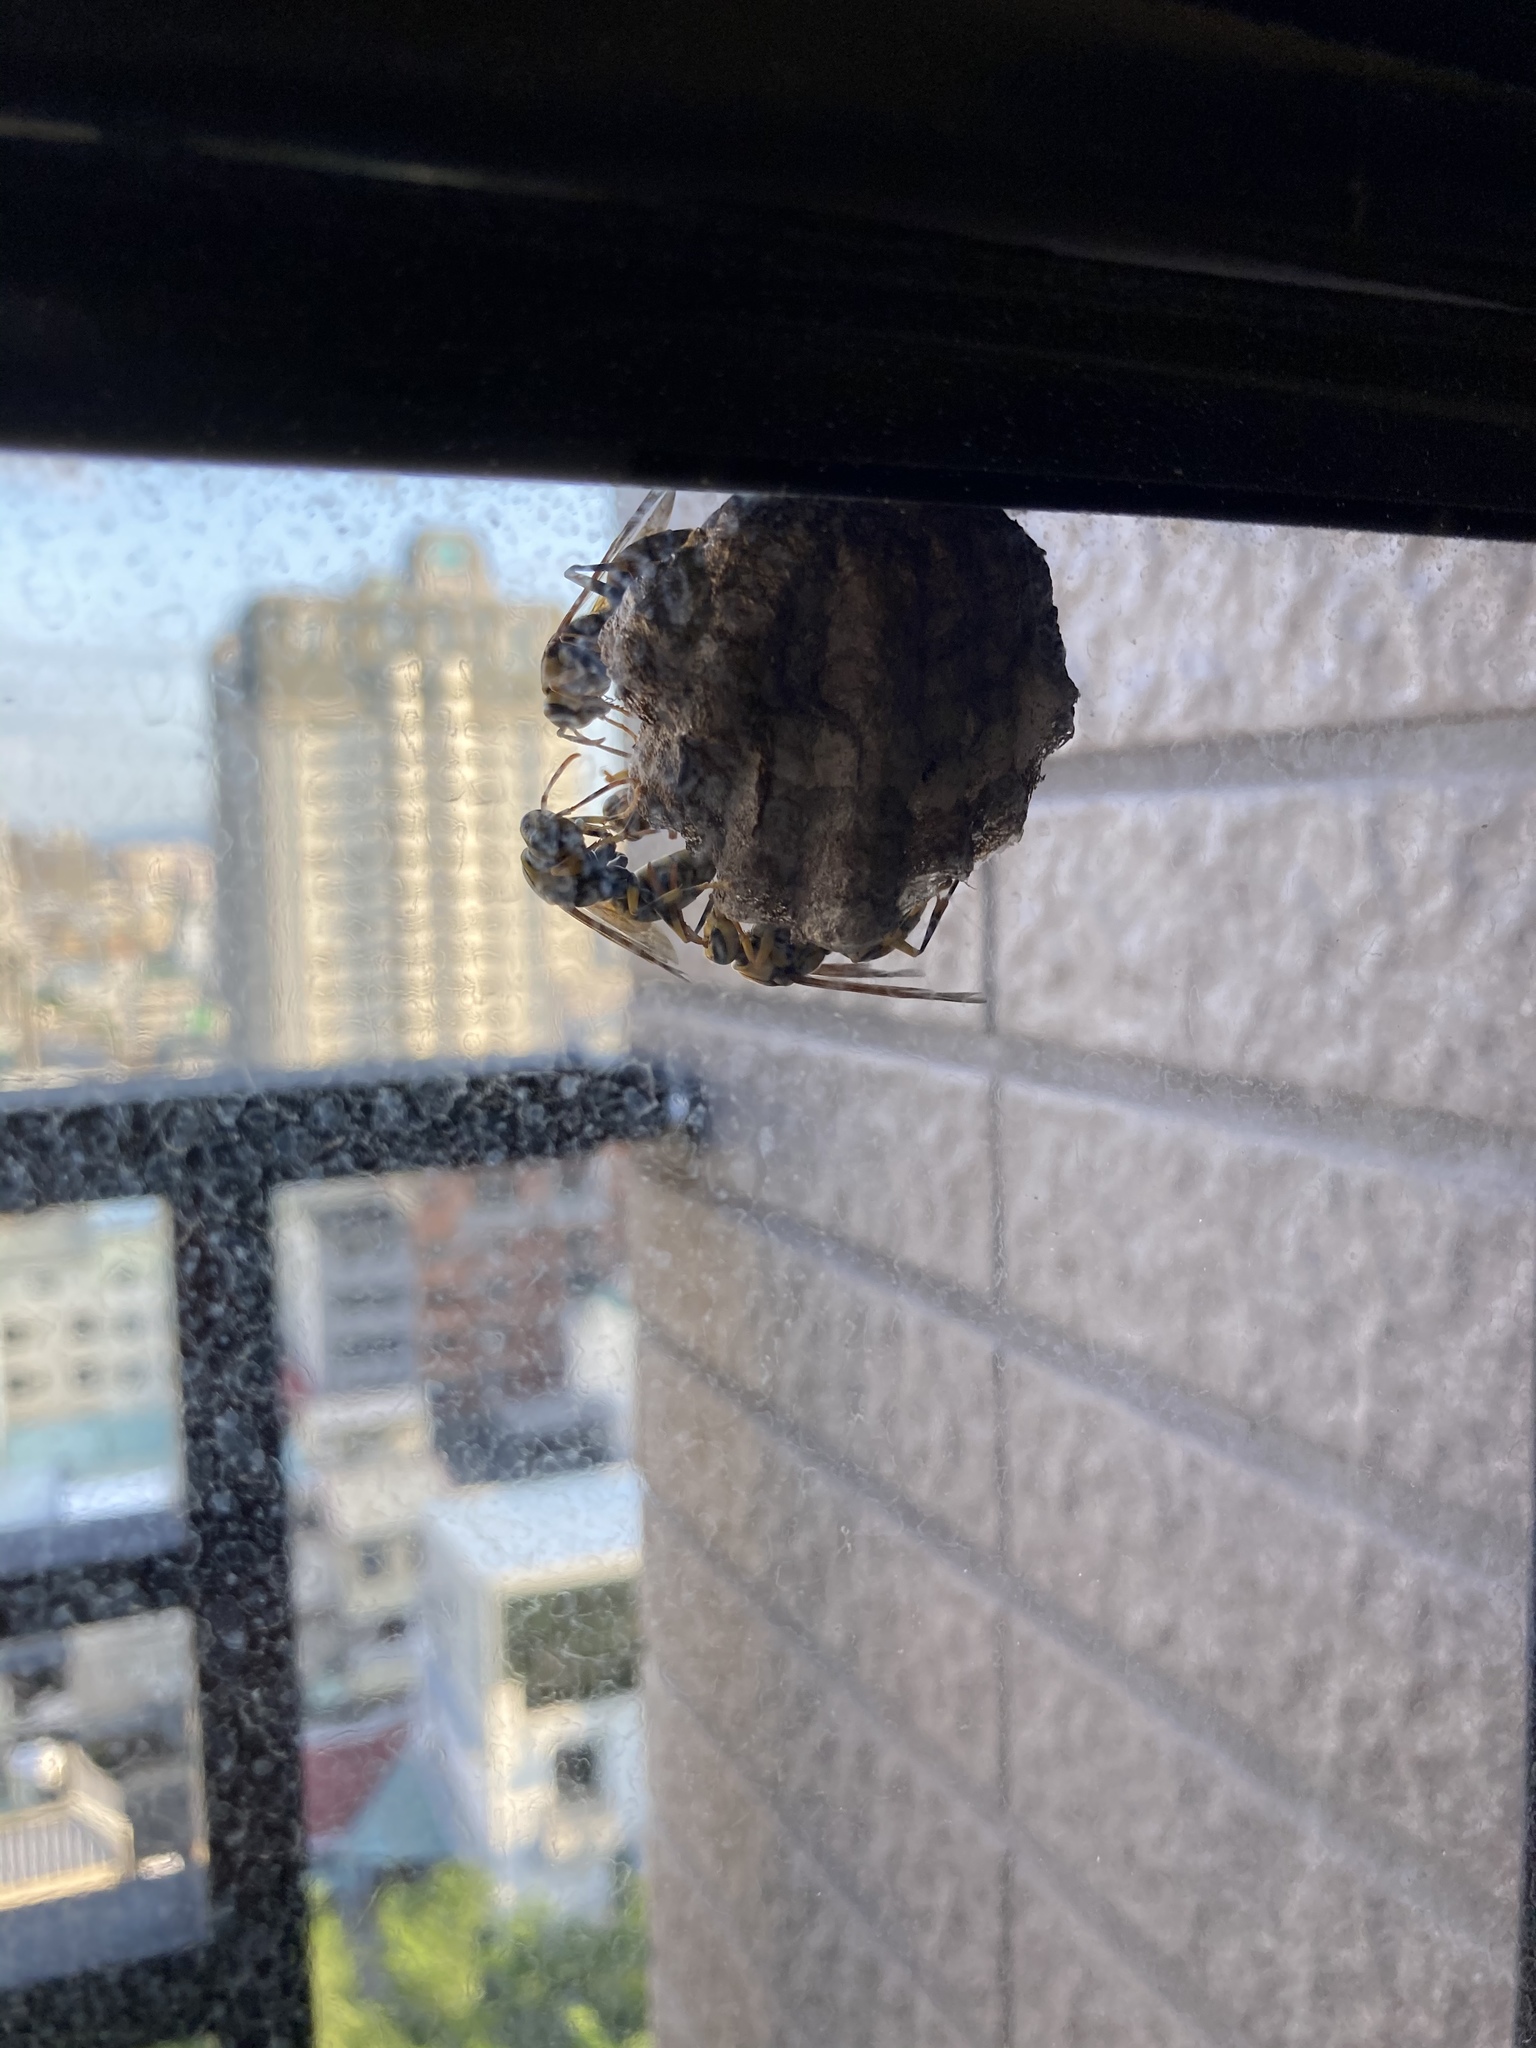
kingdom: Animalia
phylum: Arthropoda
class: Insecta
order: Hymenoptera
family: Eumenidae
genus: Polistes
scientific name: Polistes rothneyi
